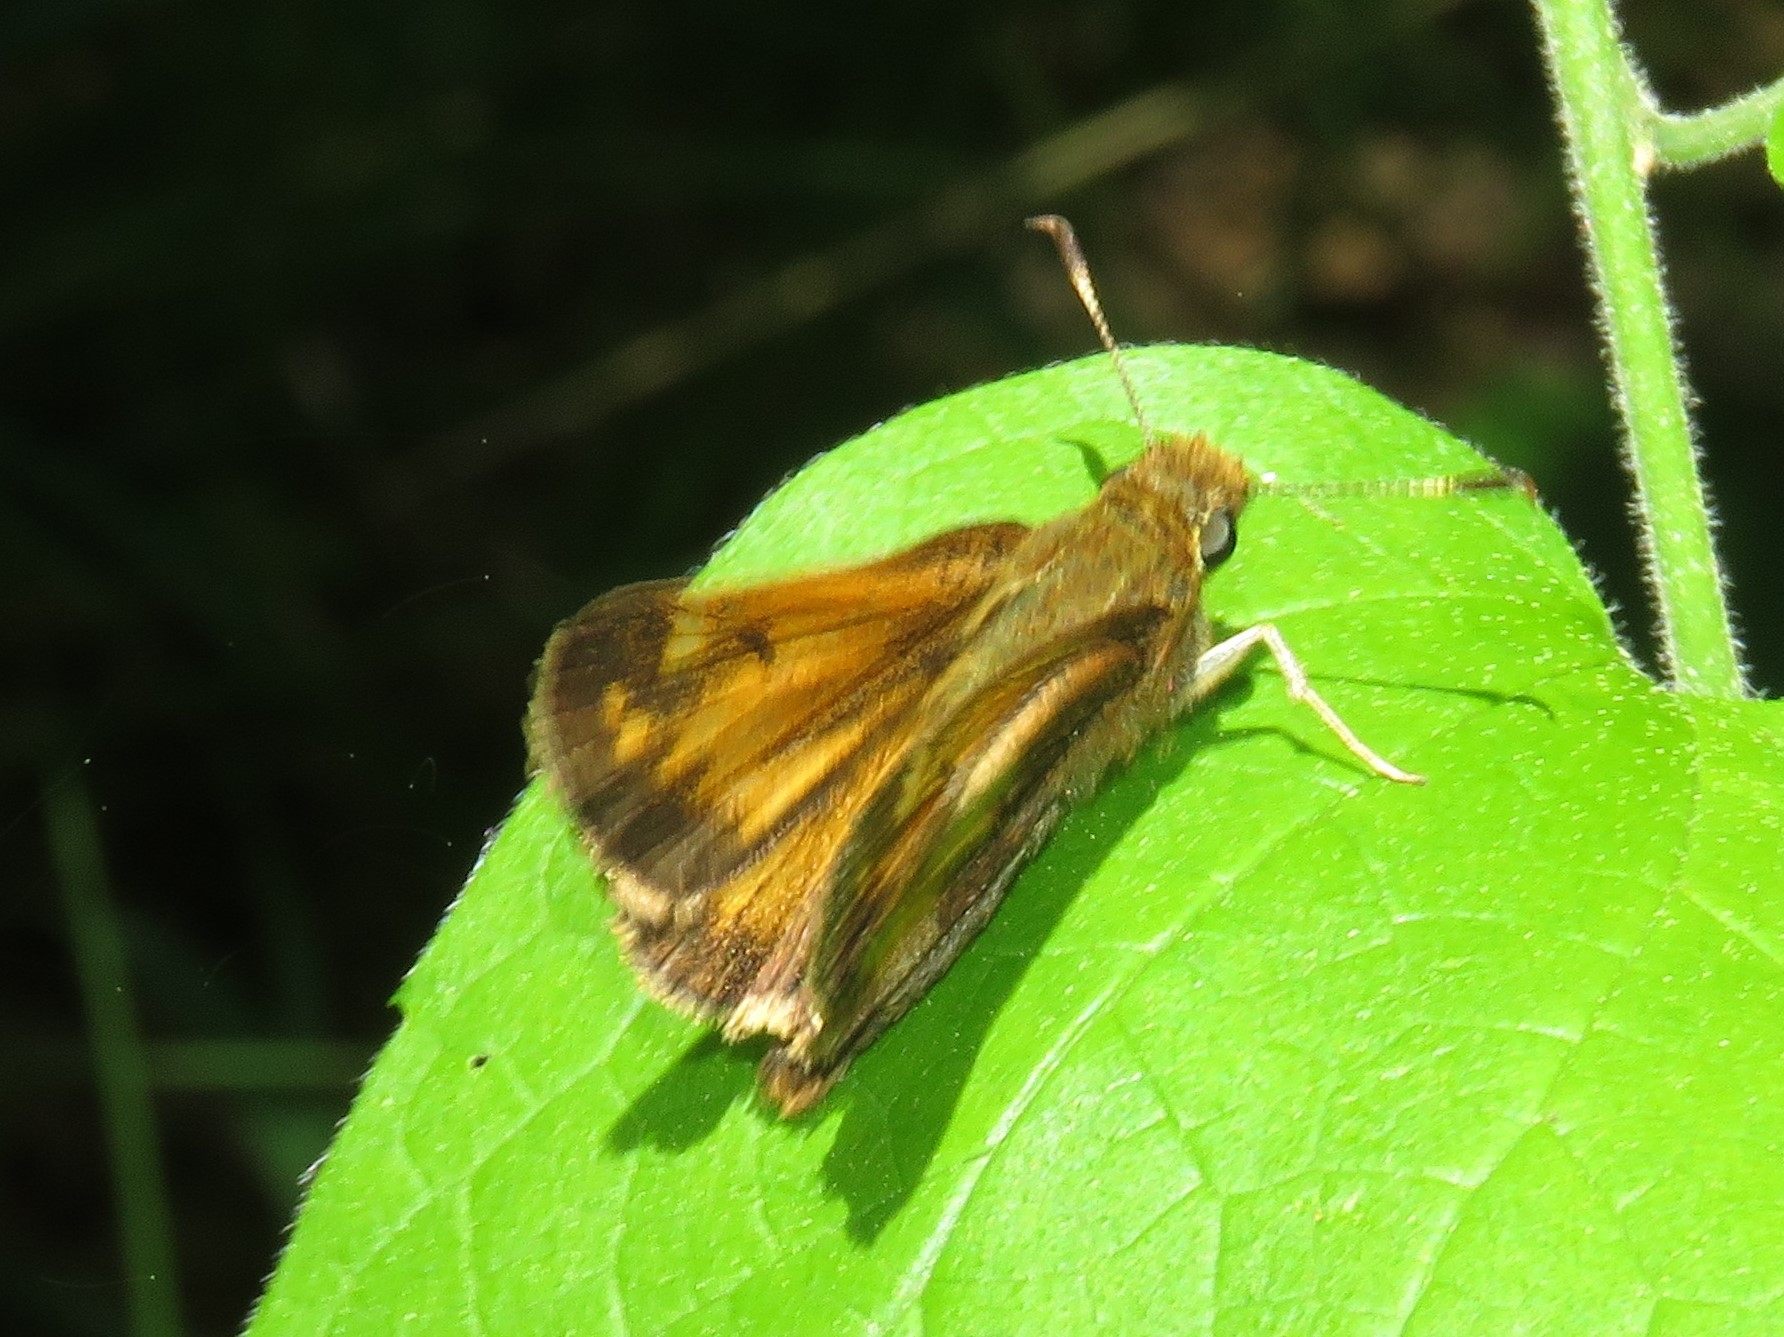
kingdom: Animalia
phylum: Arthropoda
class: Insecta
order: Lepidoptera
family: Hesperiidae
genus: Lon
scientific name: Lon hobomok
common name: Hobomok skipper
